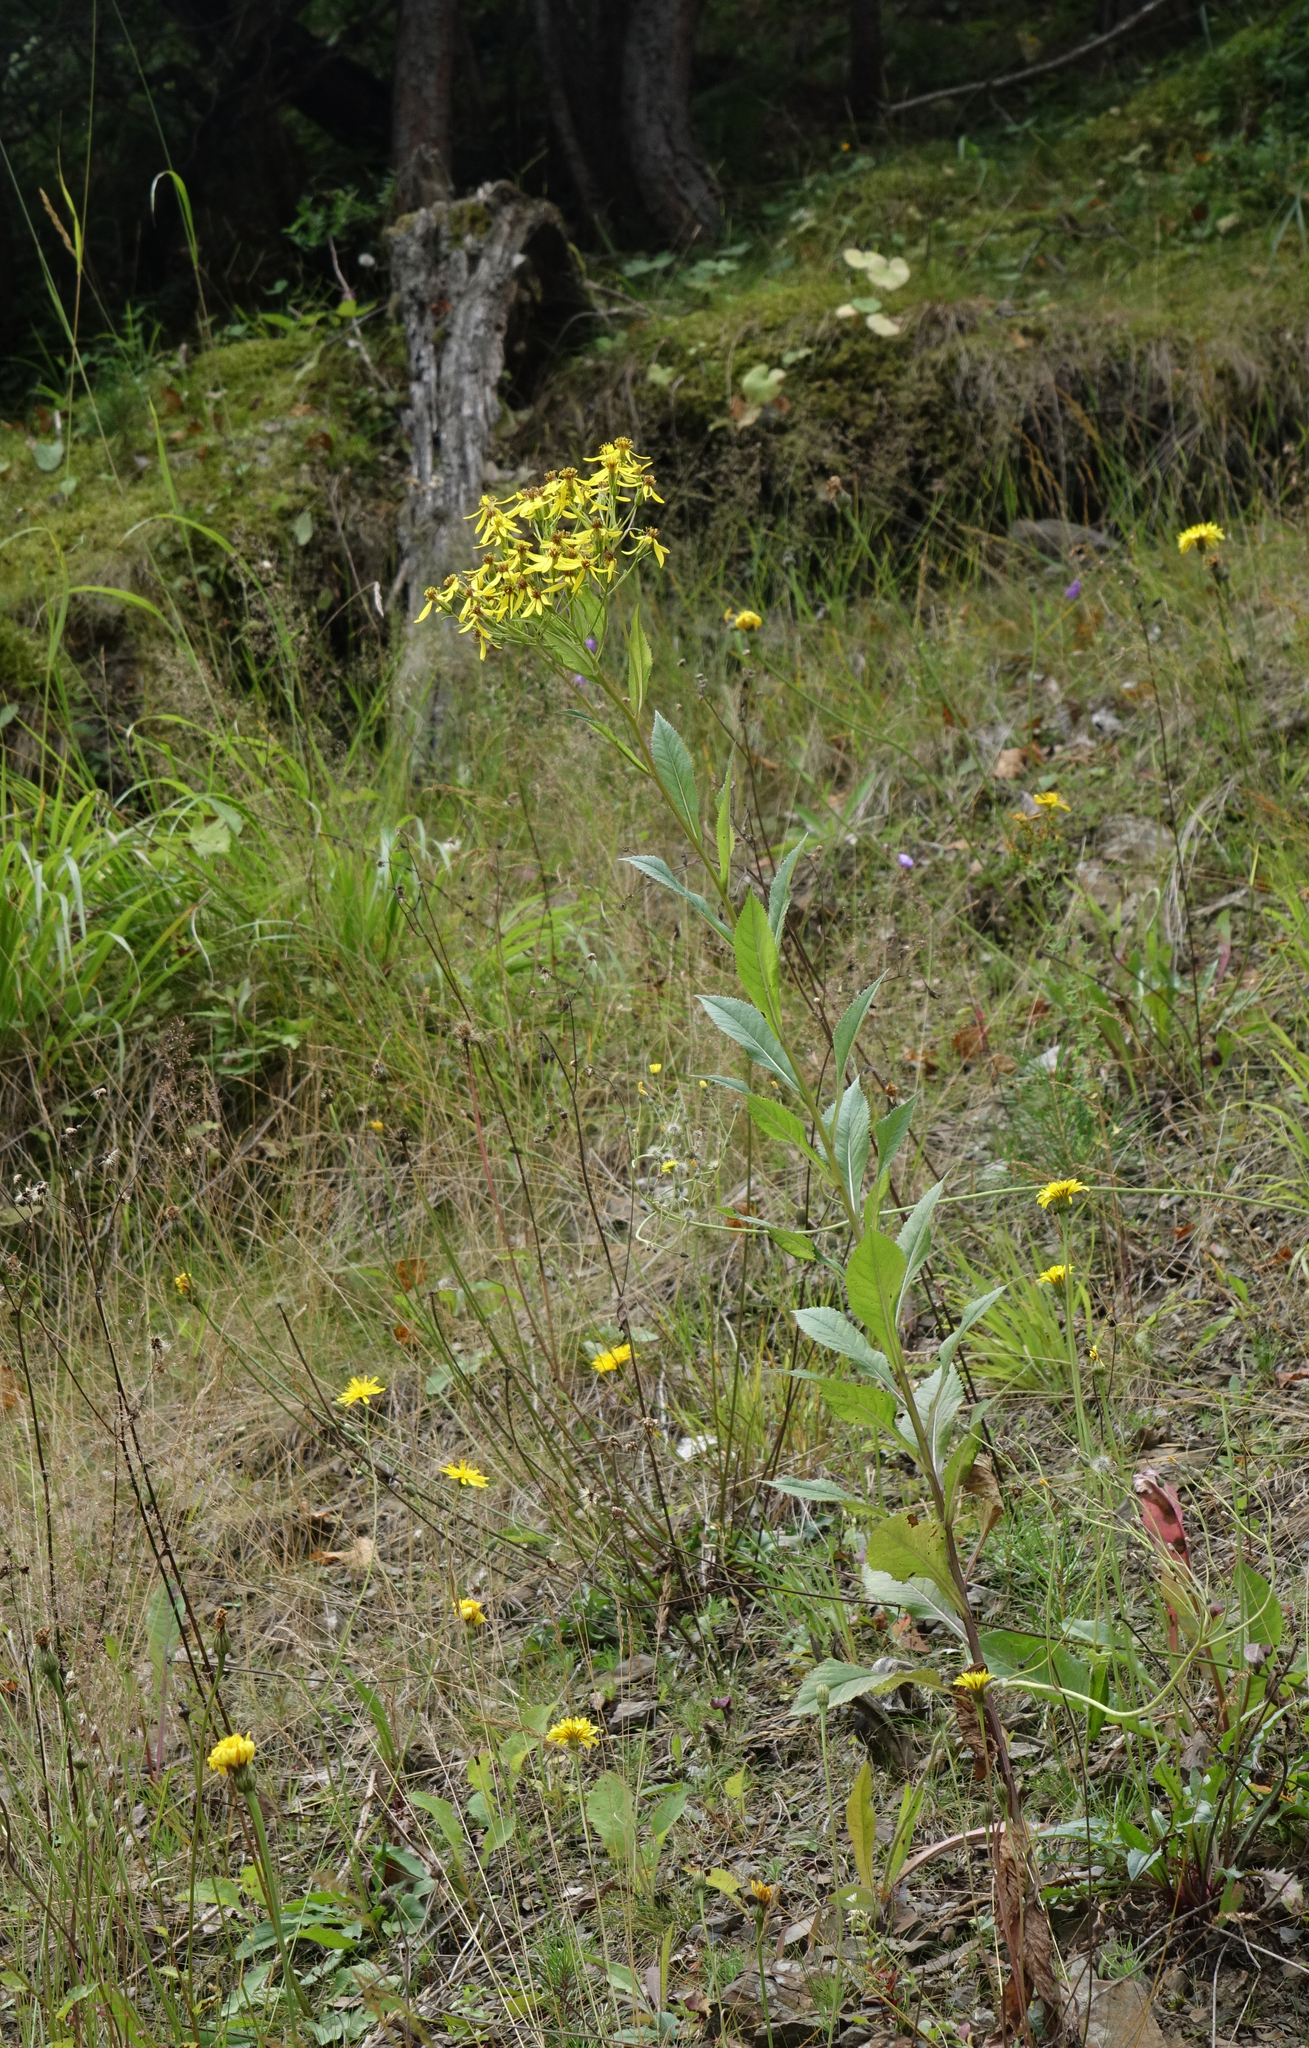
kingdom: Plantae
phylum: Tracheophyta
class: Magnoliopsida
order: Asterales
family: Asteraceae
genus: Senecio
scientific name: Senecio propinquus
